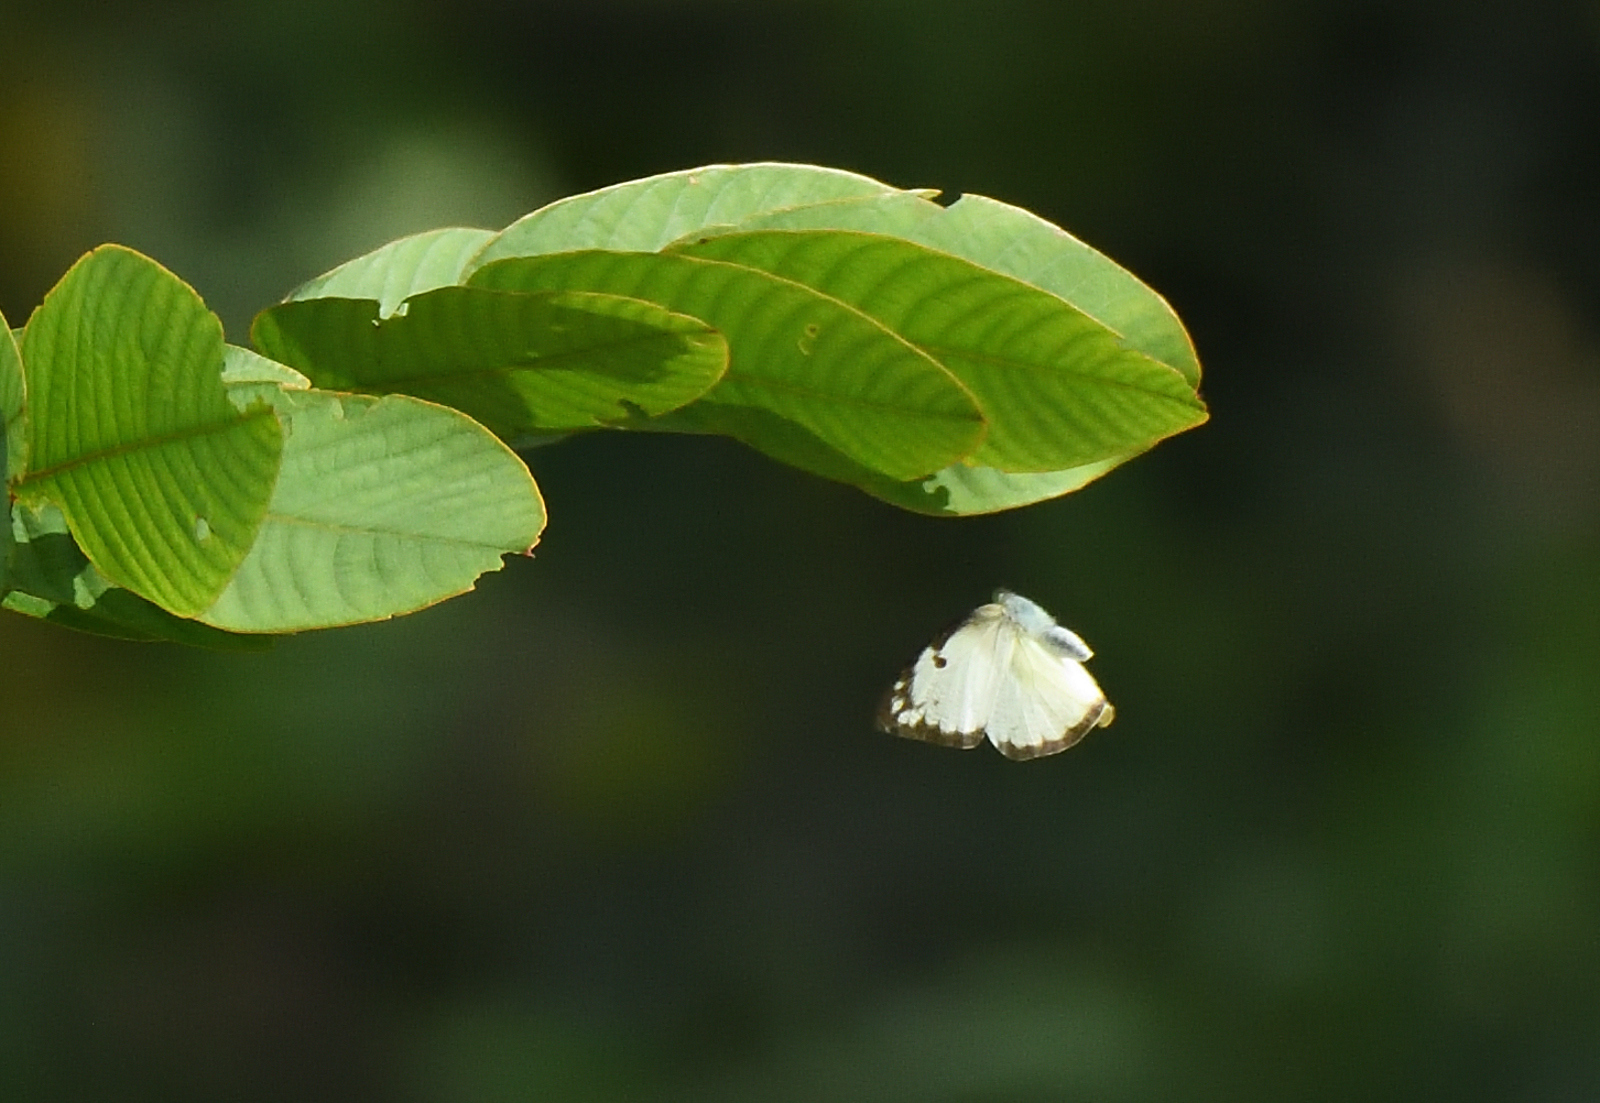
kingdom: Animalia
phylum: Arthropoda
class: Insecta
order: Lepidoptera
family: Pieridae
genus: Belenois
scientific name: Belenois aurota
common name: Brown-veined white
